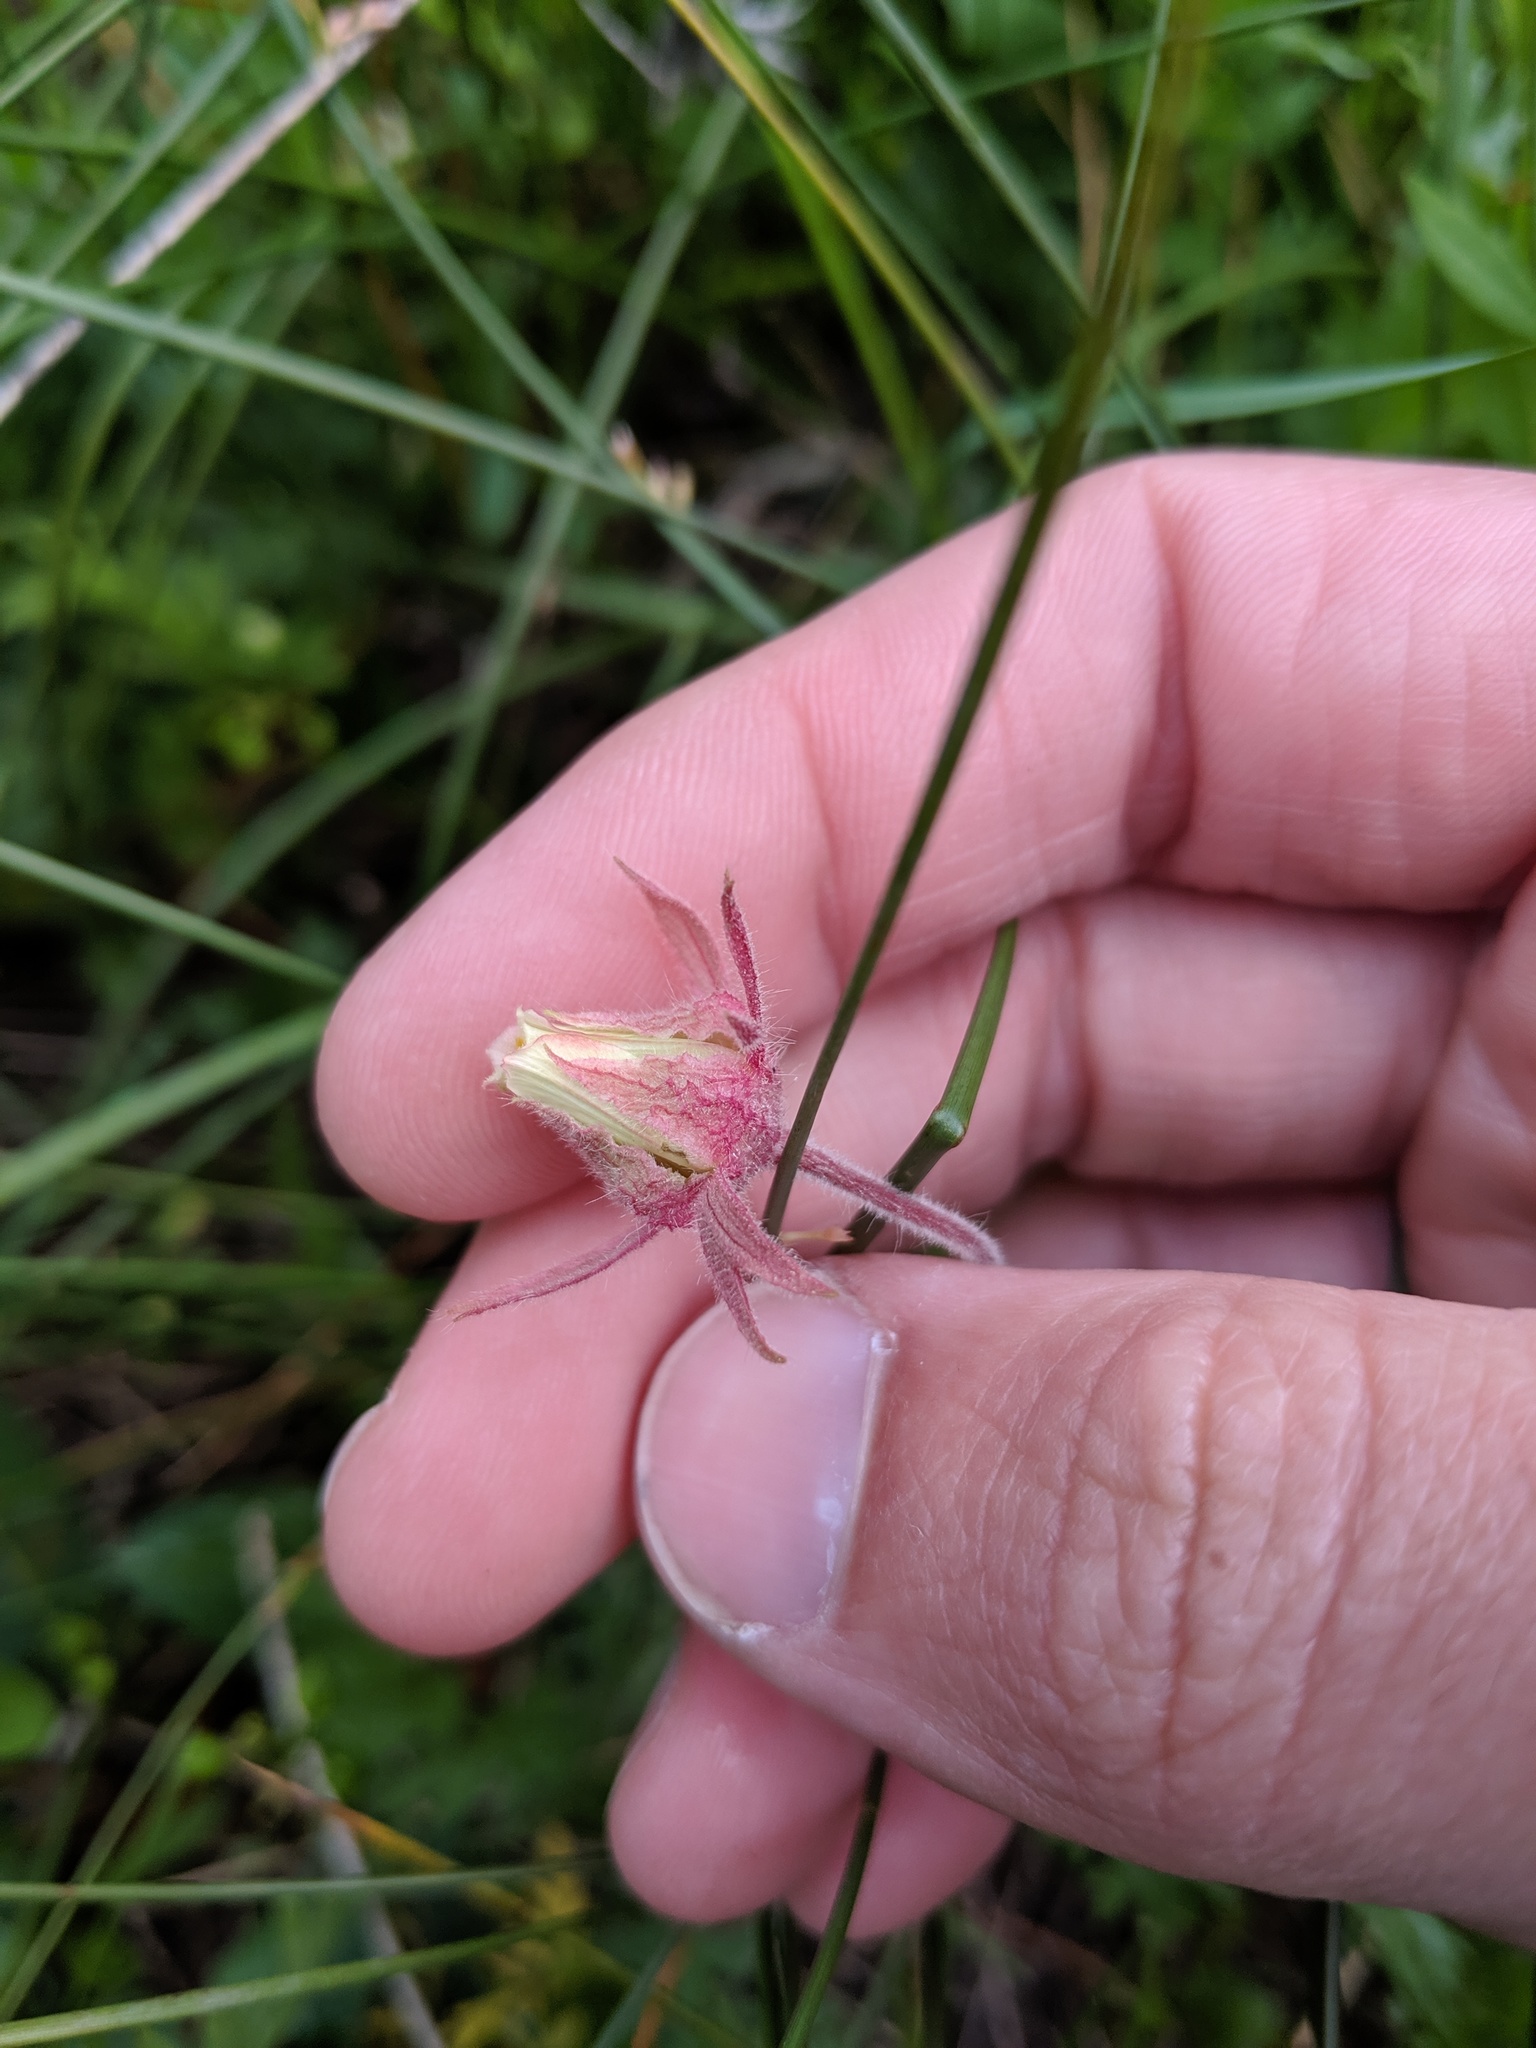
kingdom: Plantae
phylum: Tracheophyta
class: Magnoliopsida
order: Rosales
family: Rosaceae
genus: Geum
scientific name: Geum triflorum
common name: Old man's whiskers
